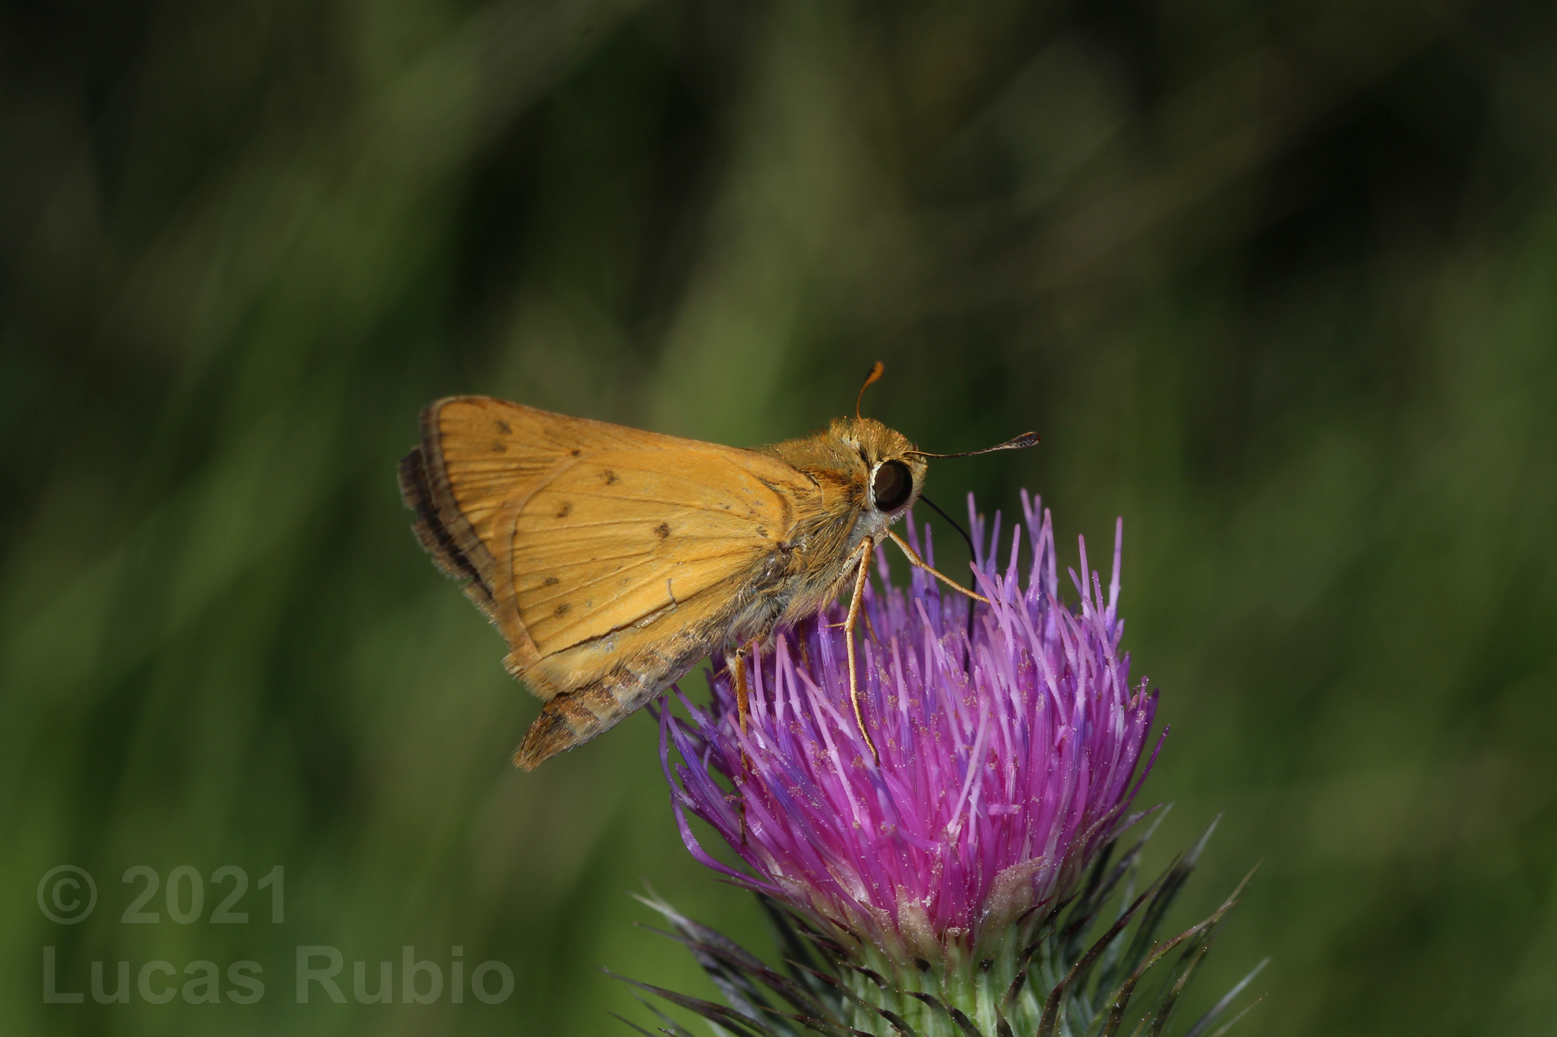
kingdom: Animalia
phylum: Arthropoda
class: Insecta
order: Lepidoptera
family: Hesperiidae
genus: Hylephila
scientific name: Hylephila phyleus
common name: Fiery skipper
